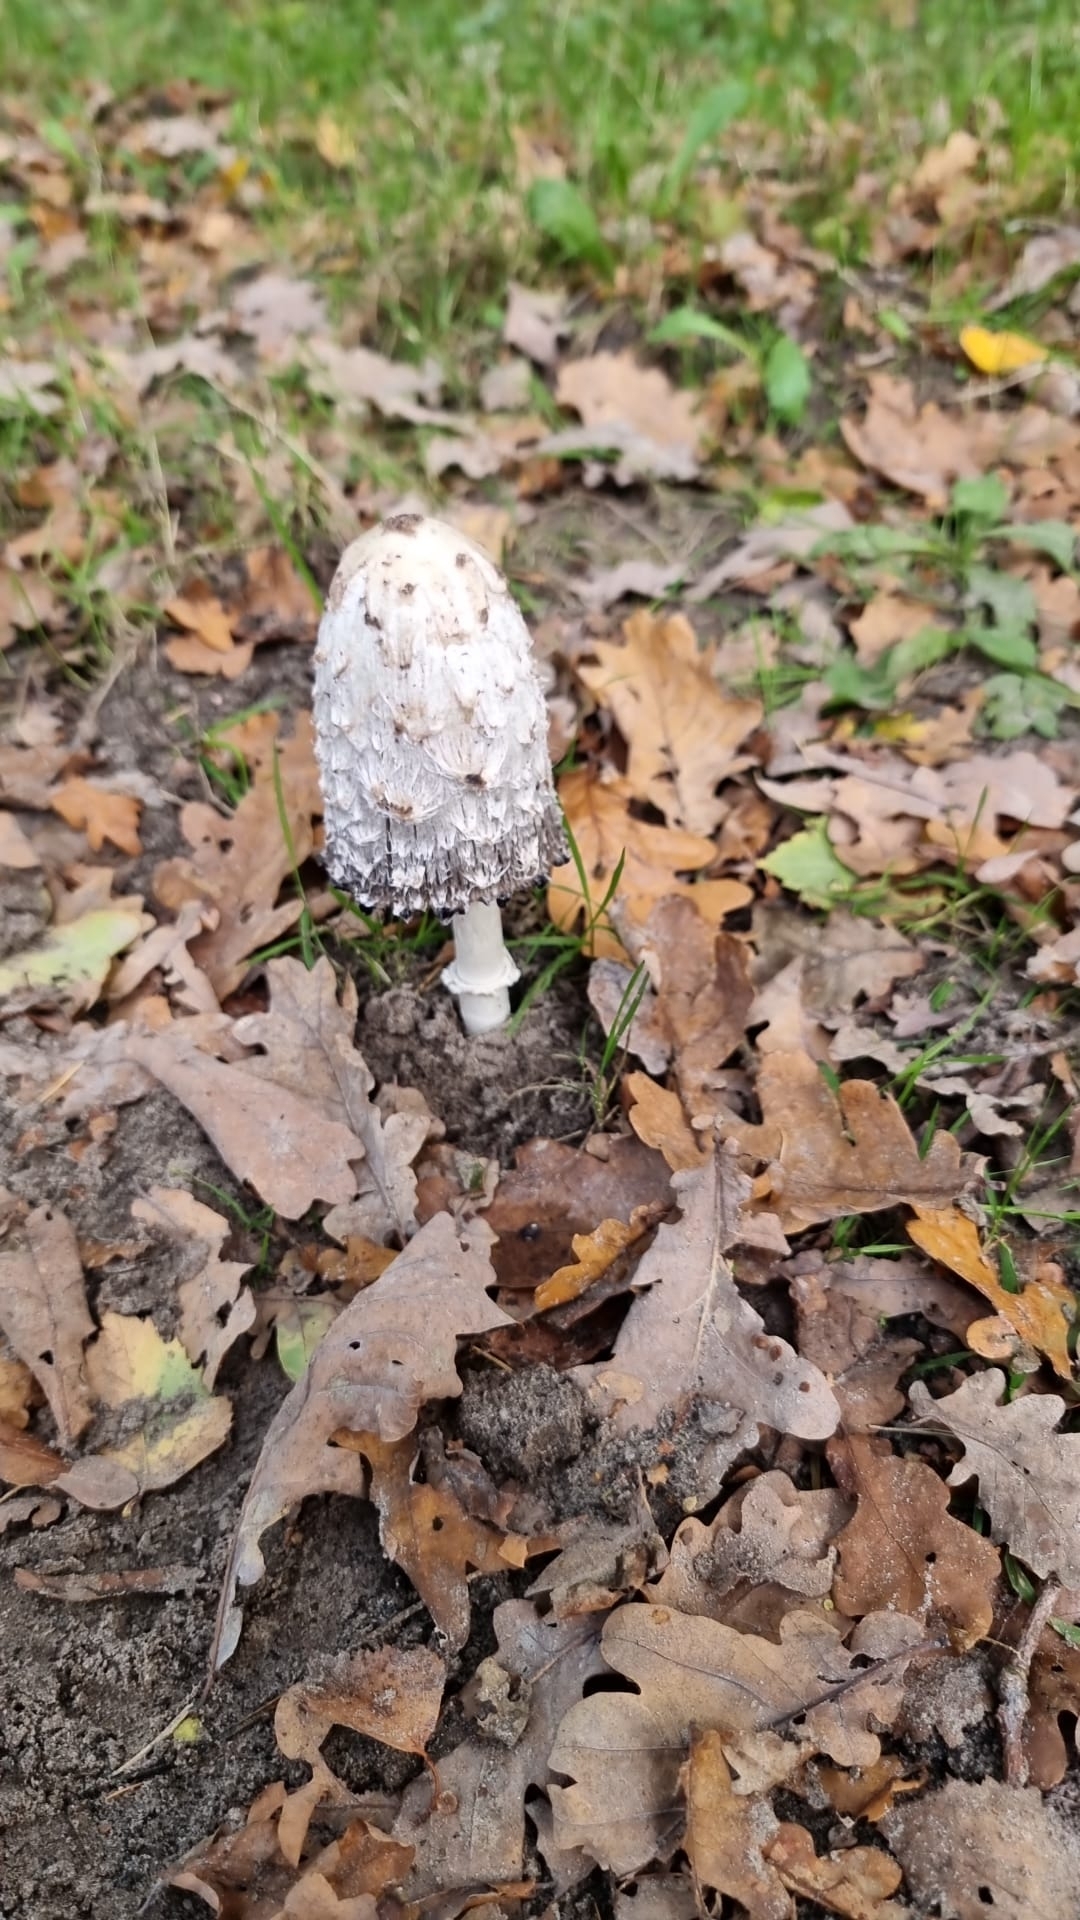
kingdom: Fungi
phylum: Basidiomycota
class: Agaricomycetes
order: Agaricales
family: Agaricaceae
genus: Coprinus
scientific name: Coprinus comatus
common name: Lawyer's wig
